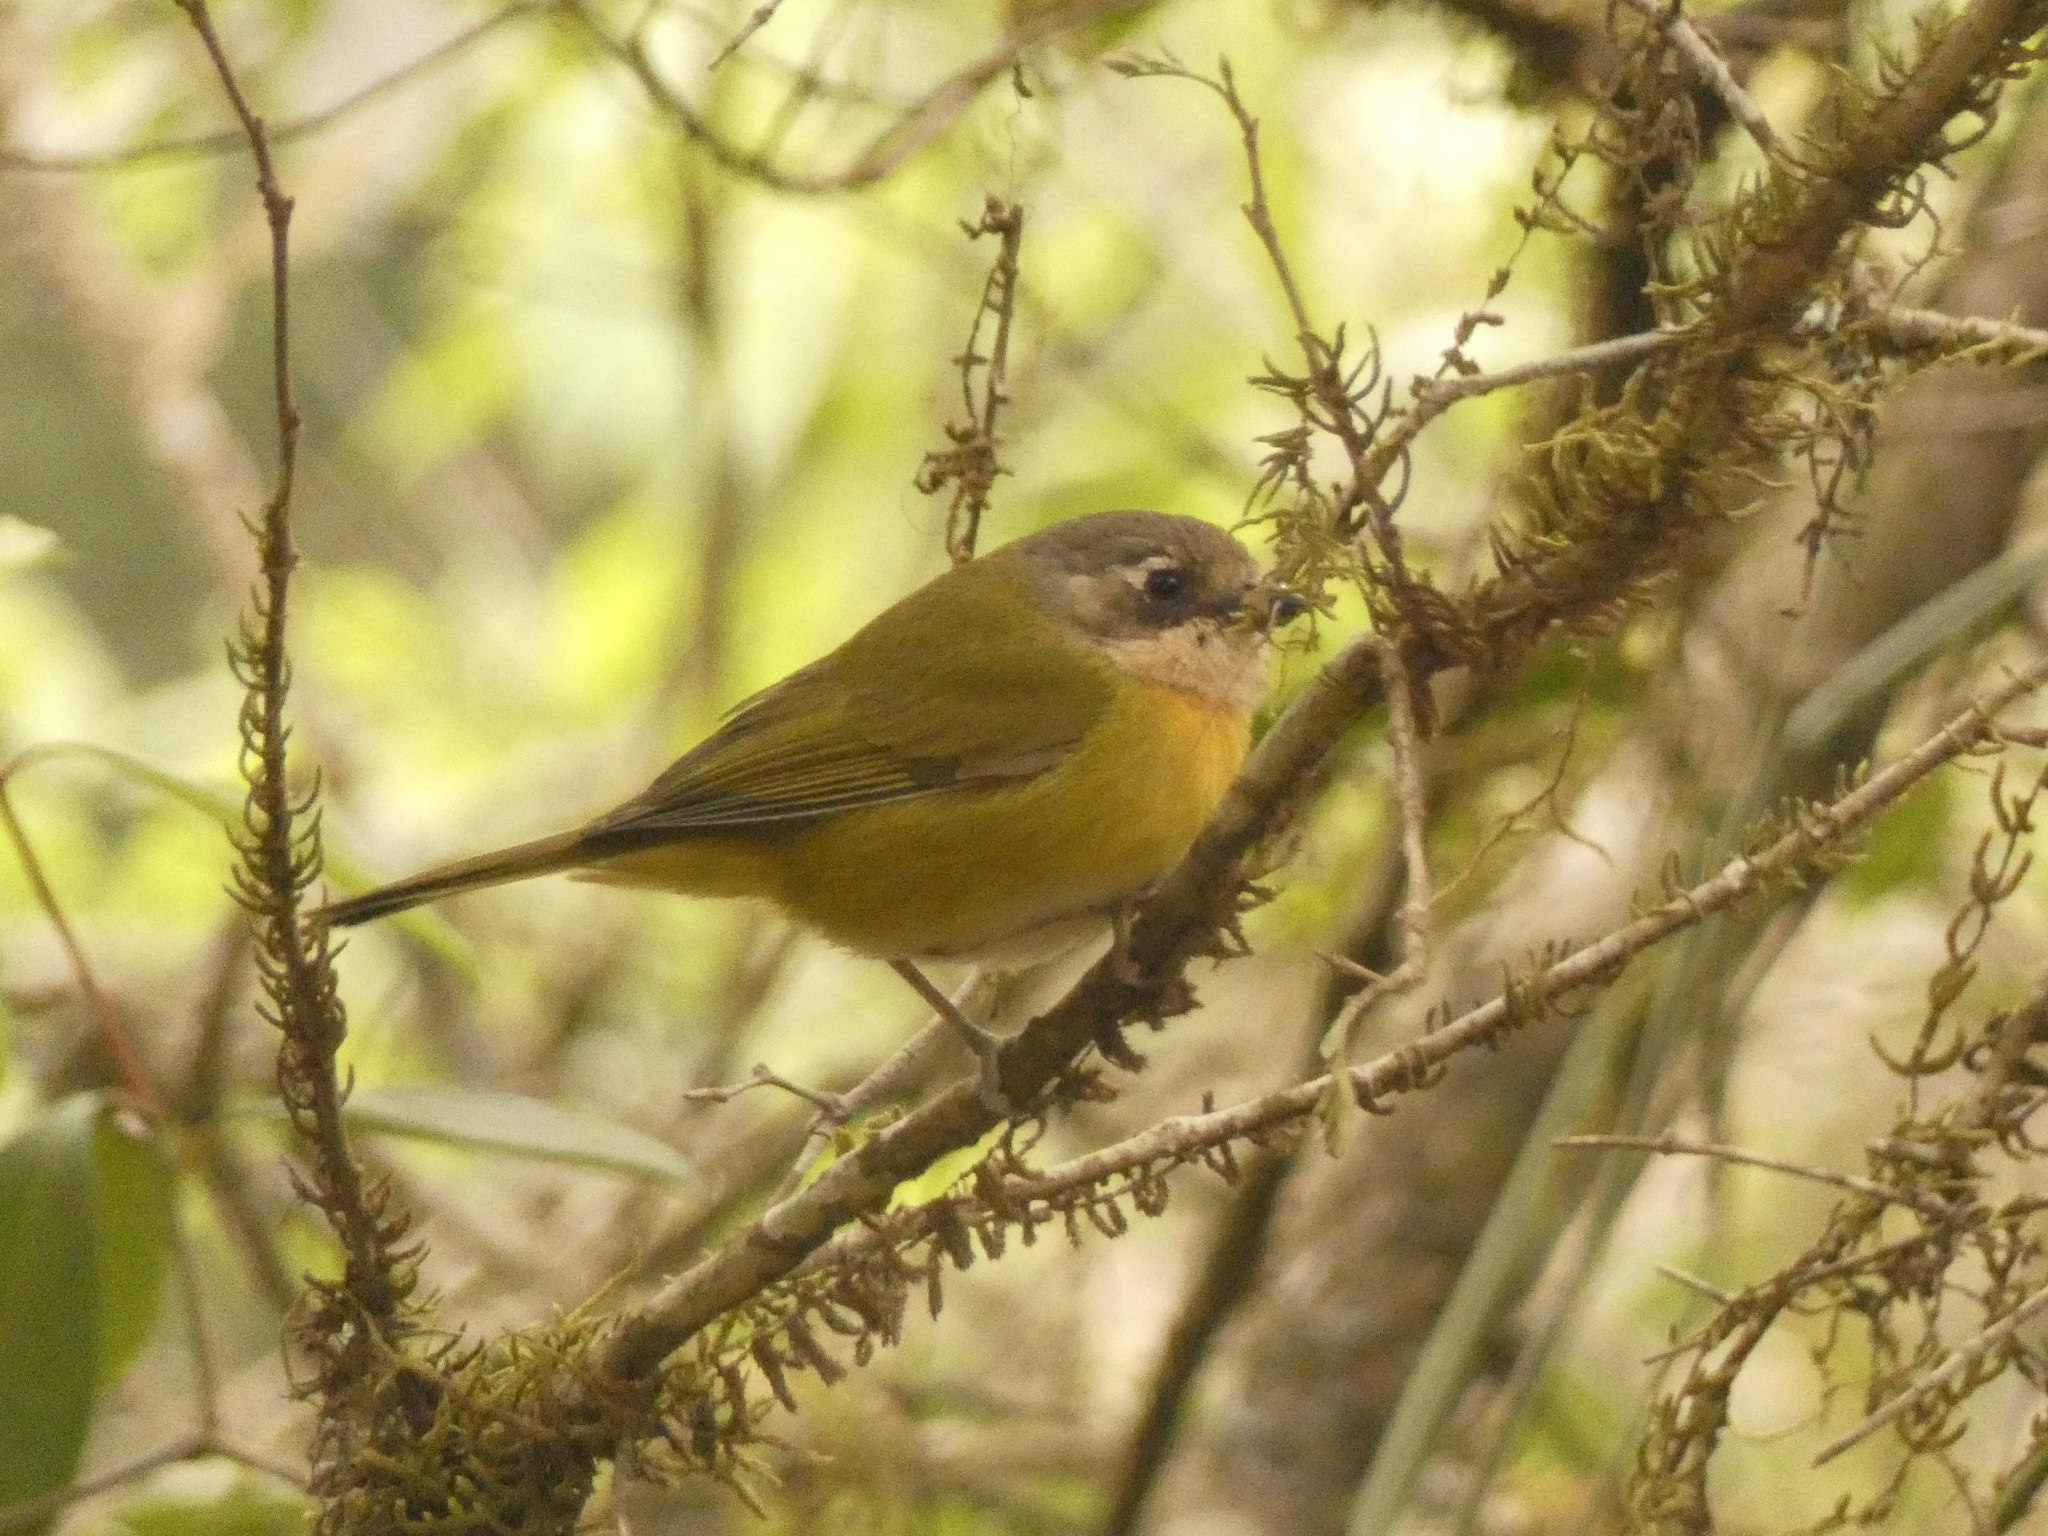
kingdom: Animalia
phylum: Chordata
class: Aves
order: Passeriformes
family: Passerellidae
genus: Chlorospingus
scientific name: Chlorospingus flavopectus
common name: Common chlorospingus
